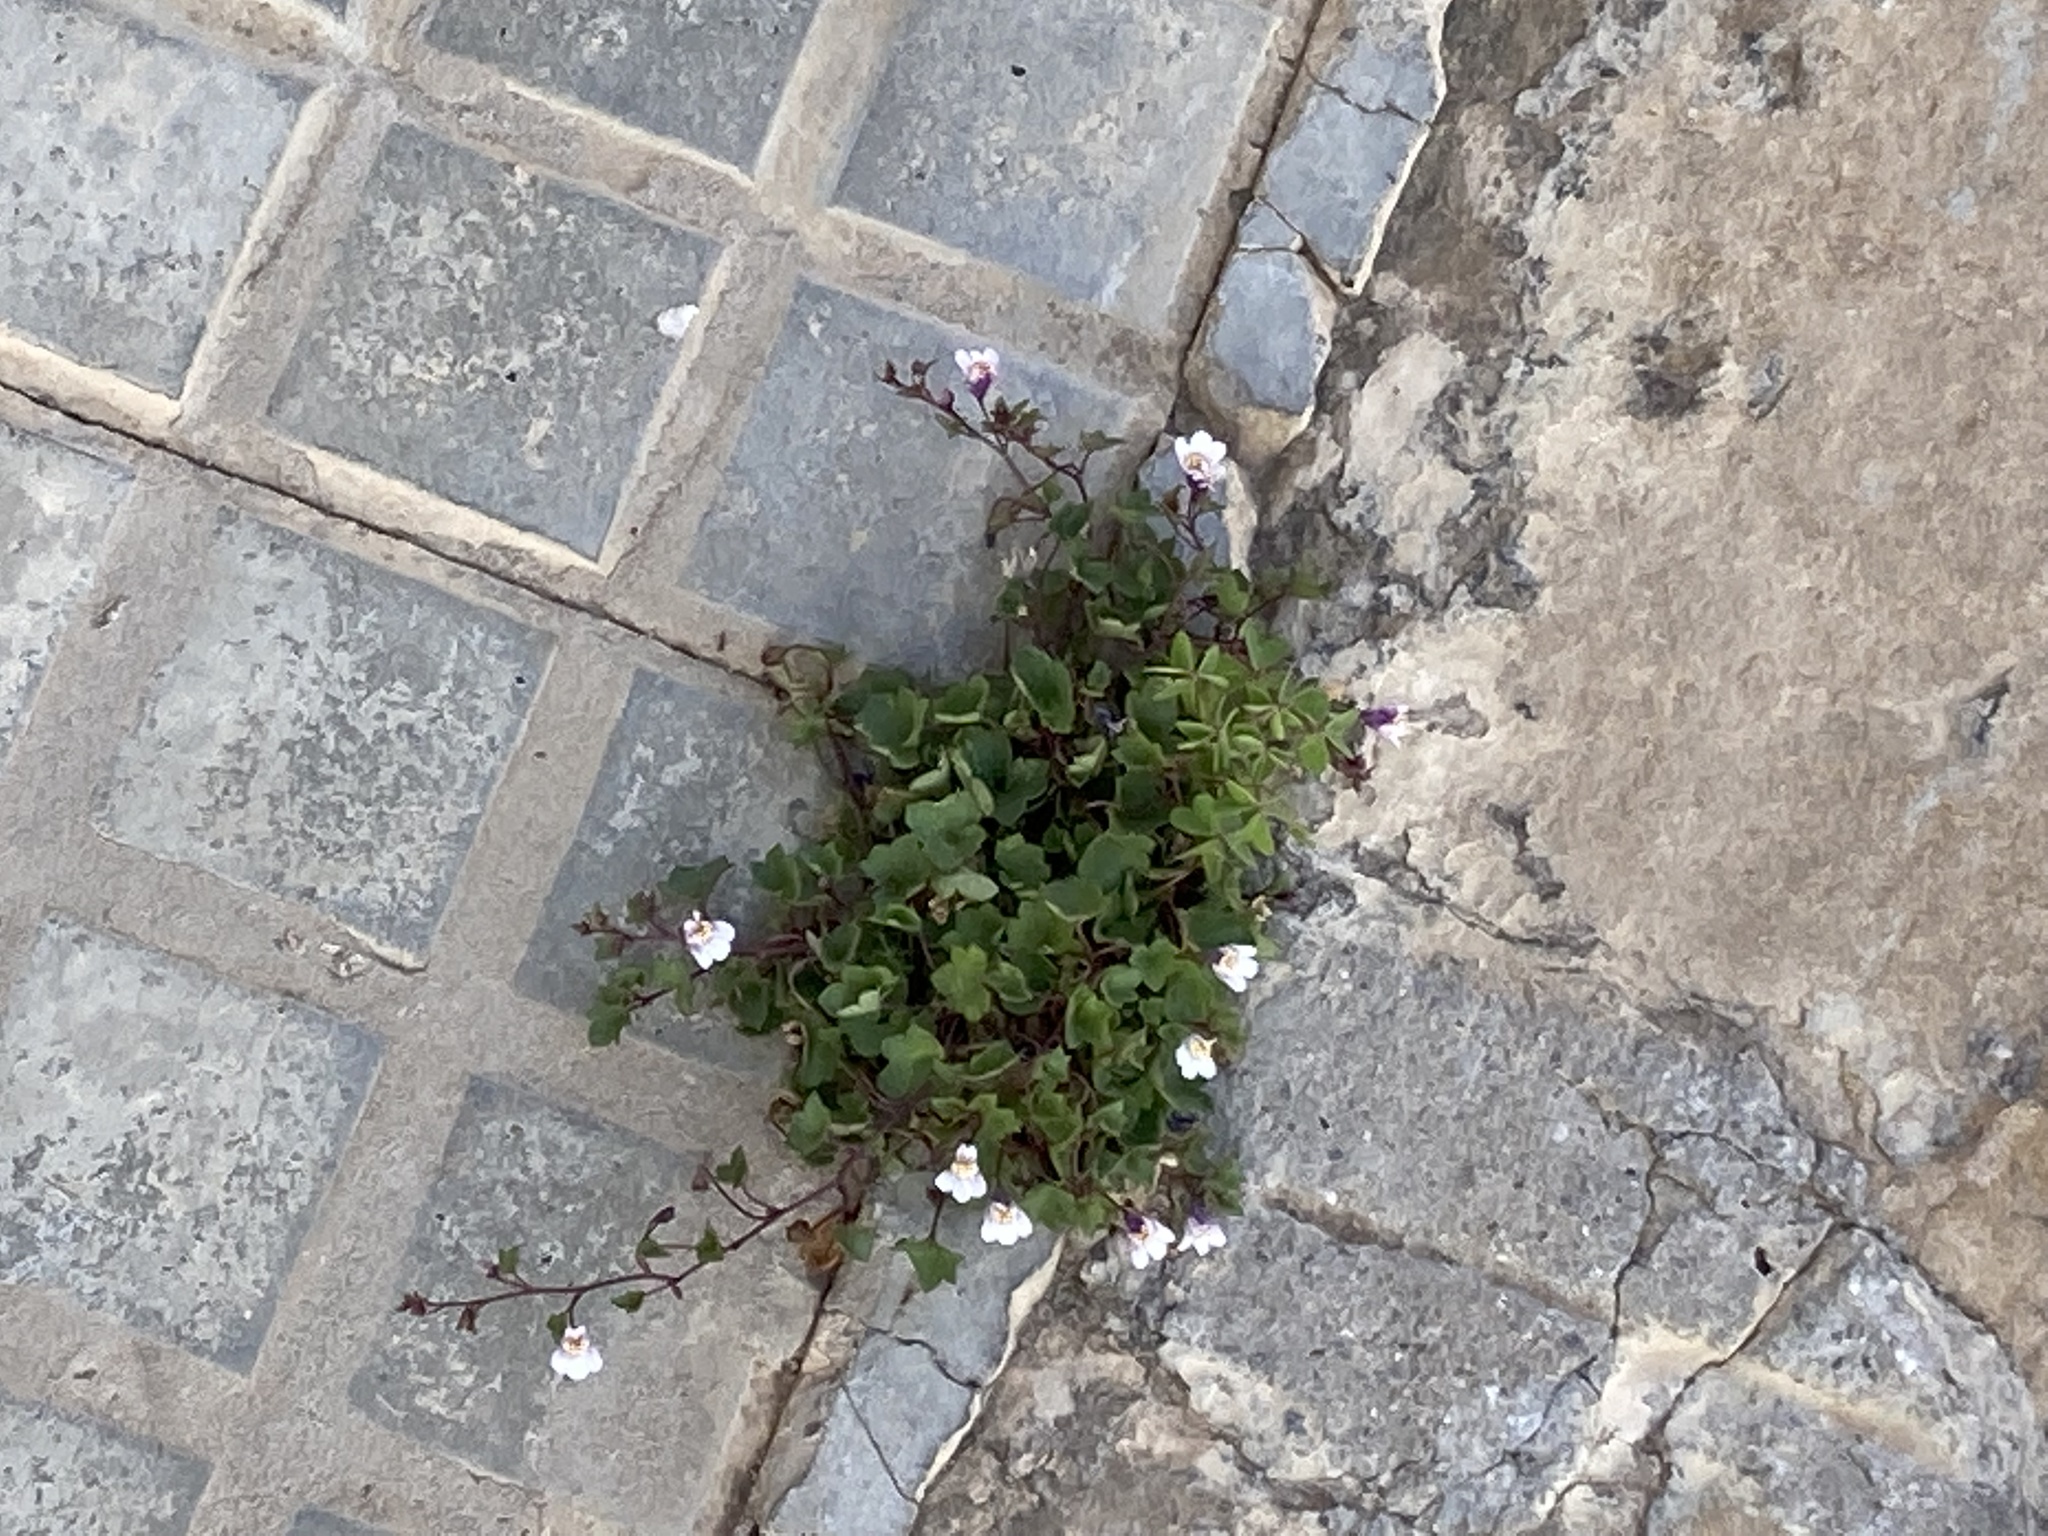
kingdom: Plantae
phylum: Tracheophyta
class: Magnoliopsida
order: Lamiales
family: Plantaginaceae
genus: Cymbalaria
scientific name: Cymbalaria muralis
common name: Ivy-leaved toadflax
